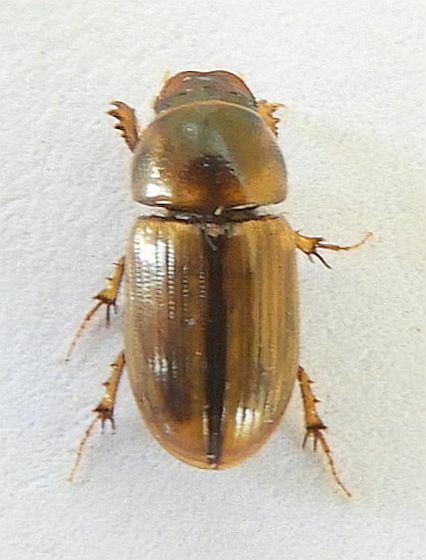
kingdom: Animalia
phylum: Arthropoda
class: Insecta
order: Coleoptera
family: Scarabaeidae
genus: Labarrus
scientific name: Labarrus lividus
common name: Scarab beetle
